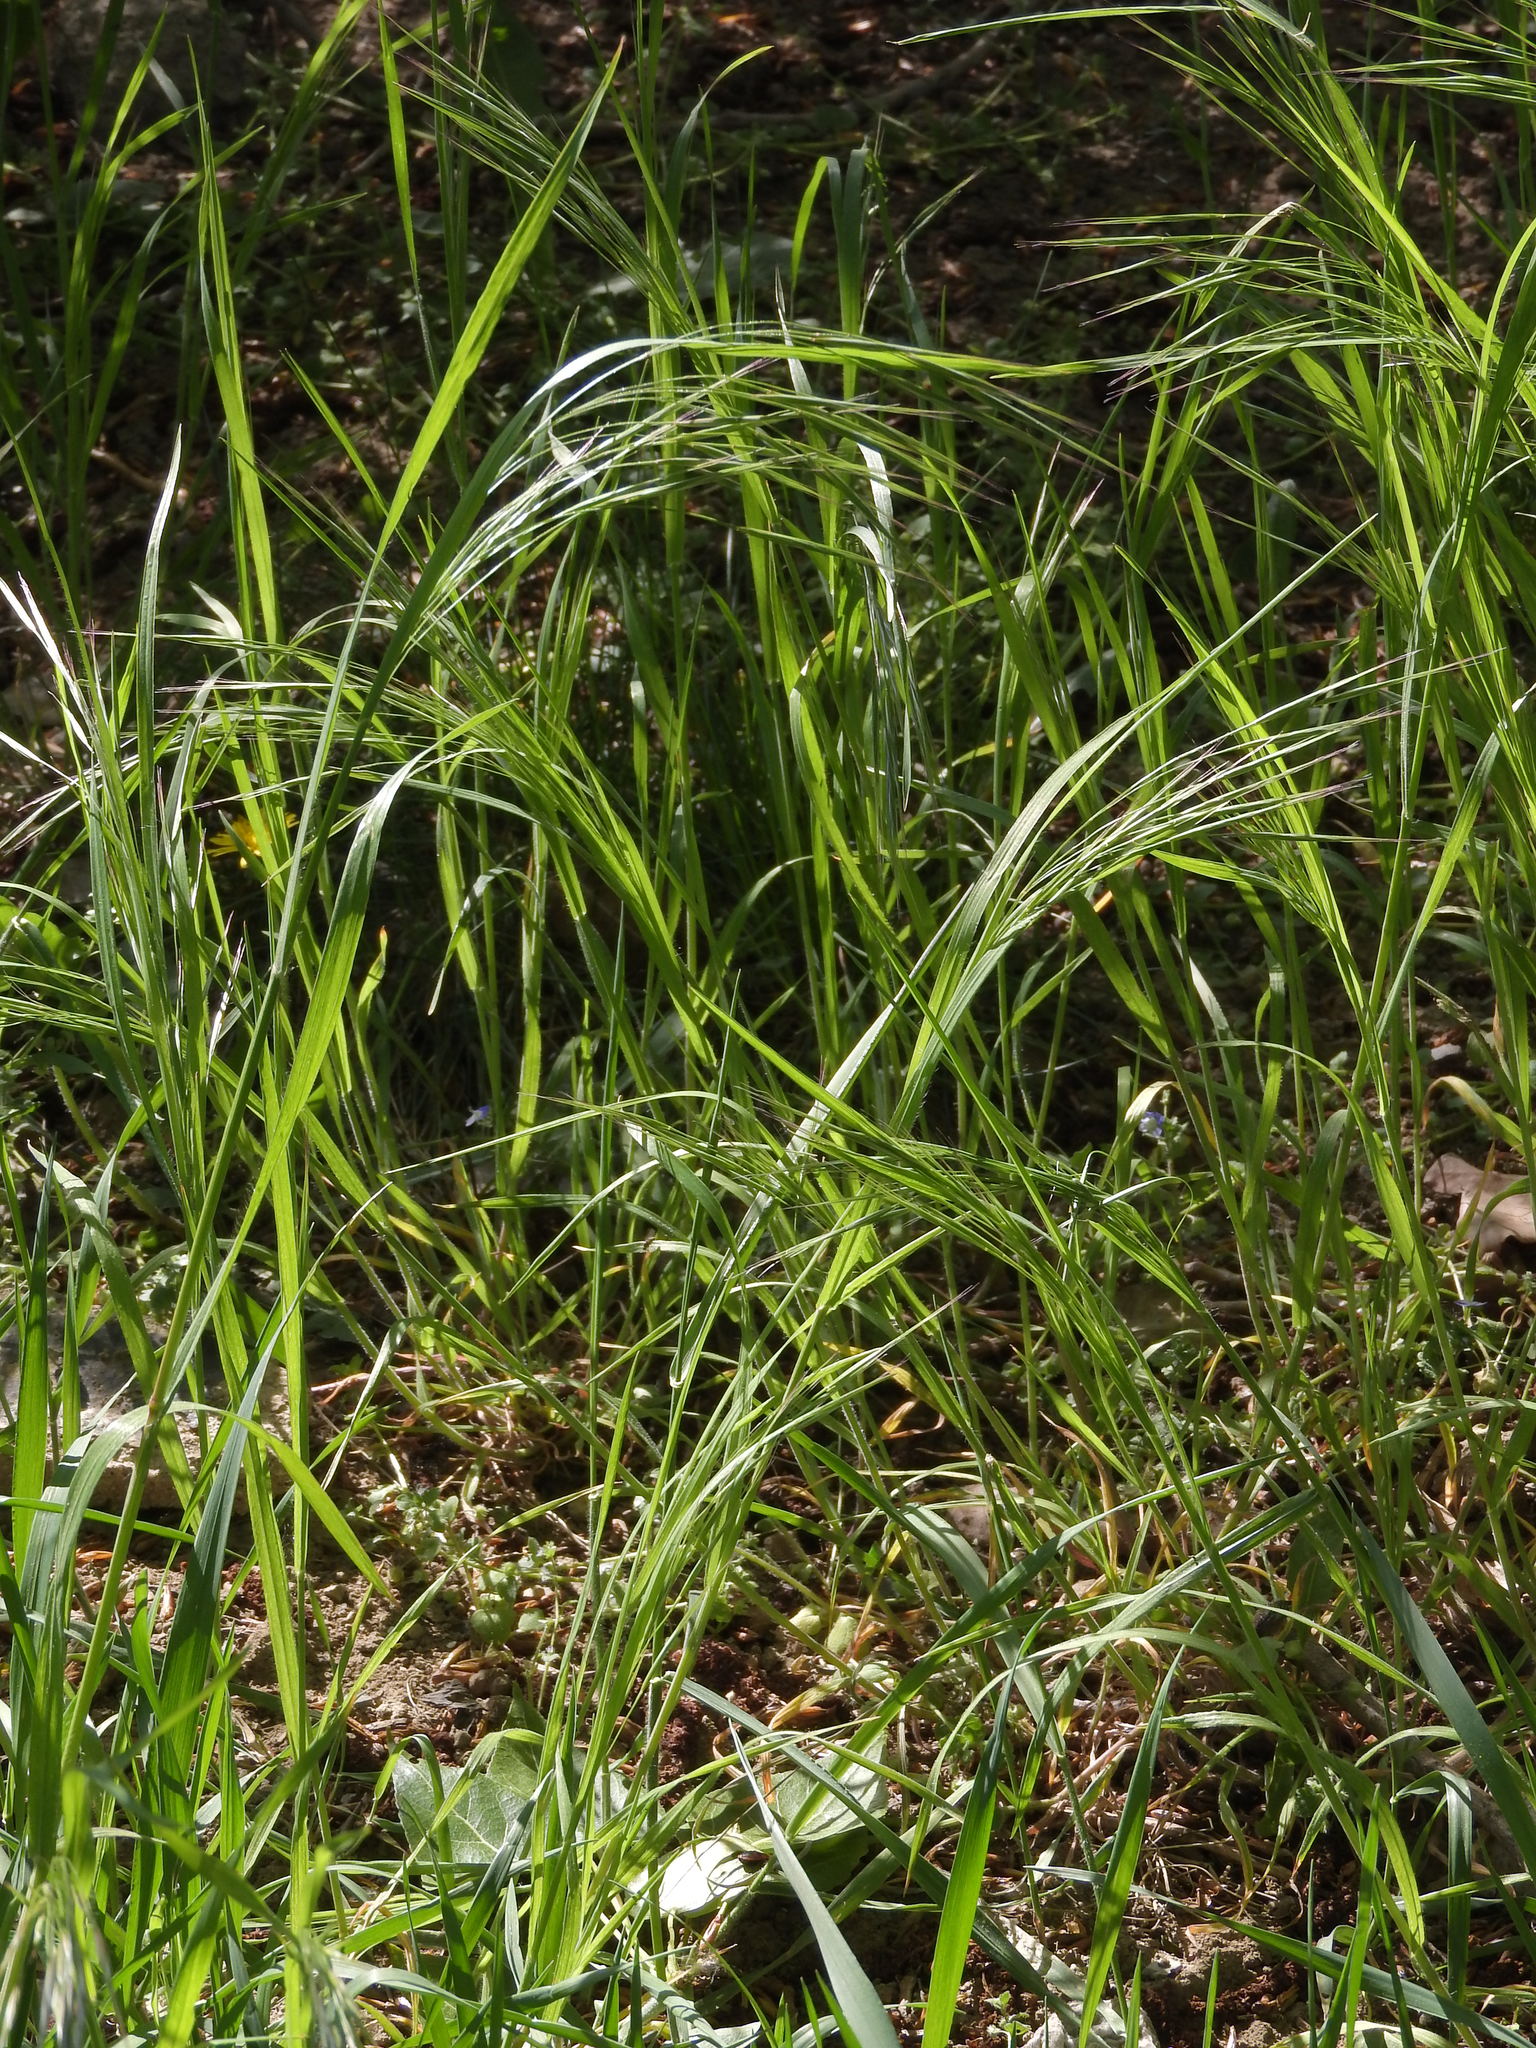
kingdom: Plantae
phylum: Tracheophyta
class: Liliopsida
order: Poales
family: Poaceae
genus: Bromus
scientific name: Bromus sterilis
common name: Poverty brome
